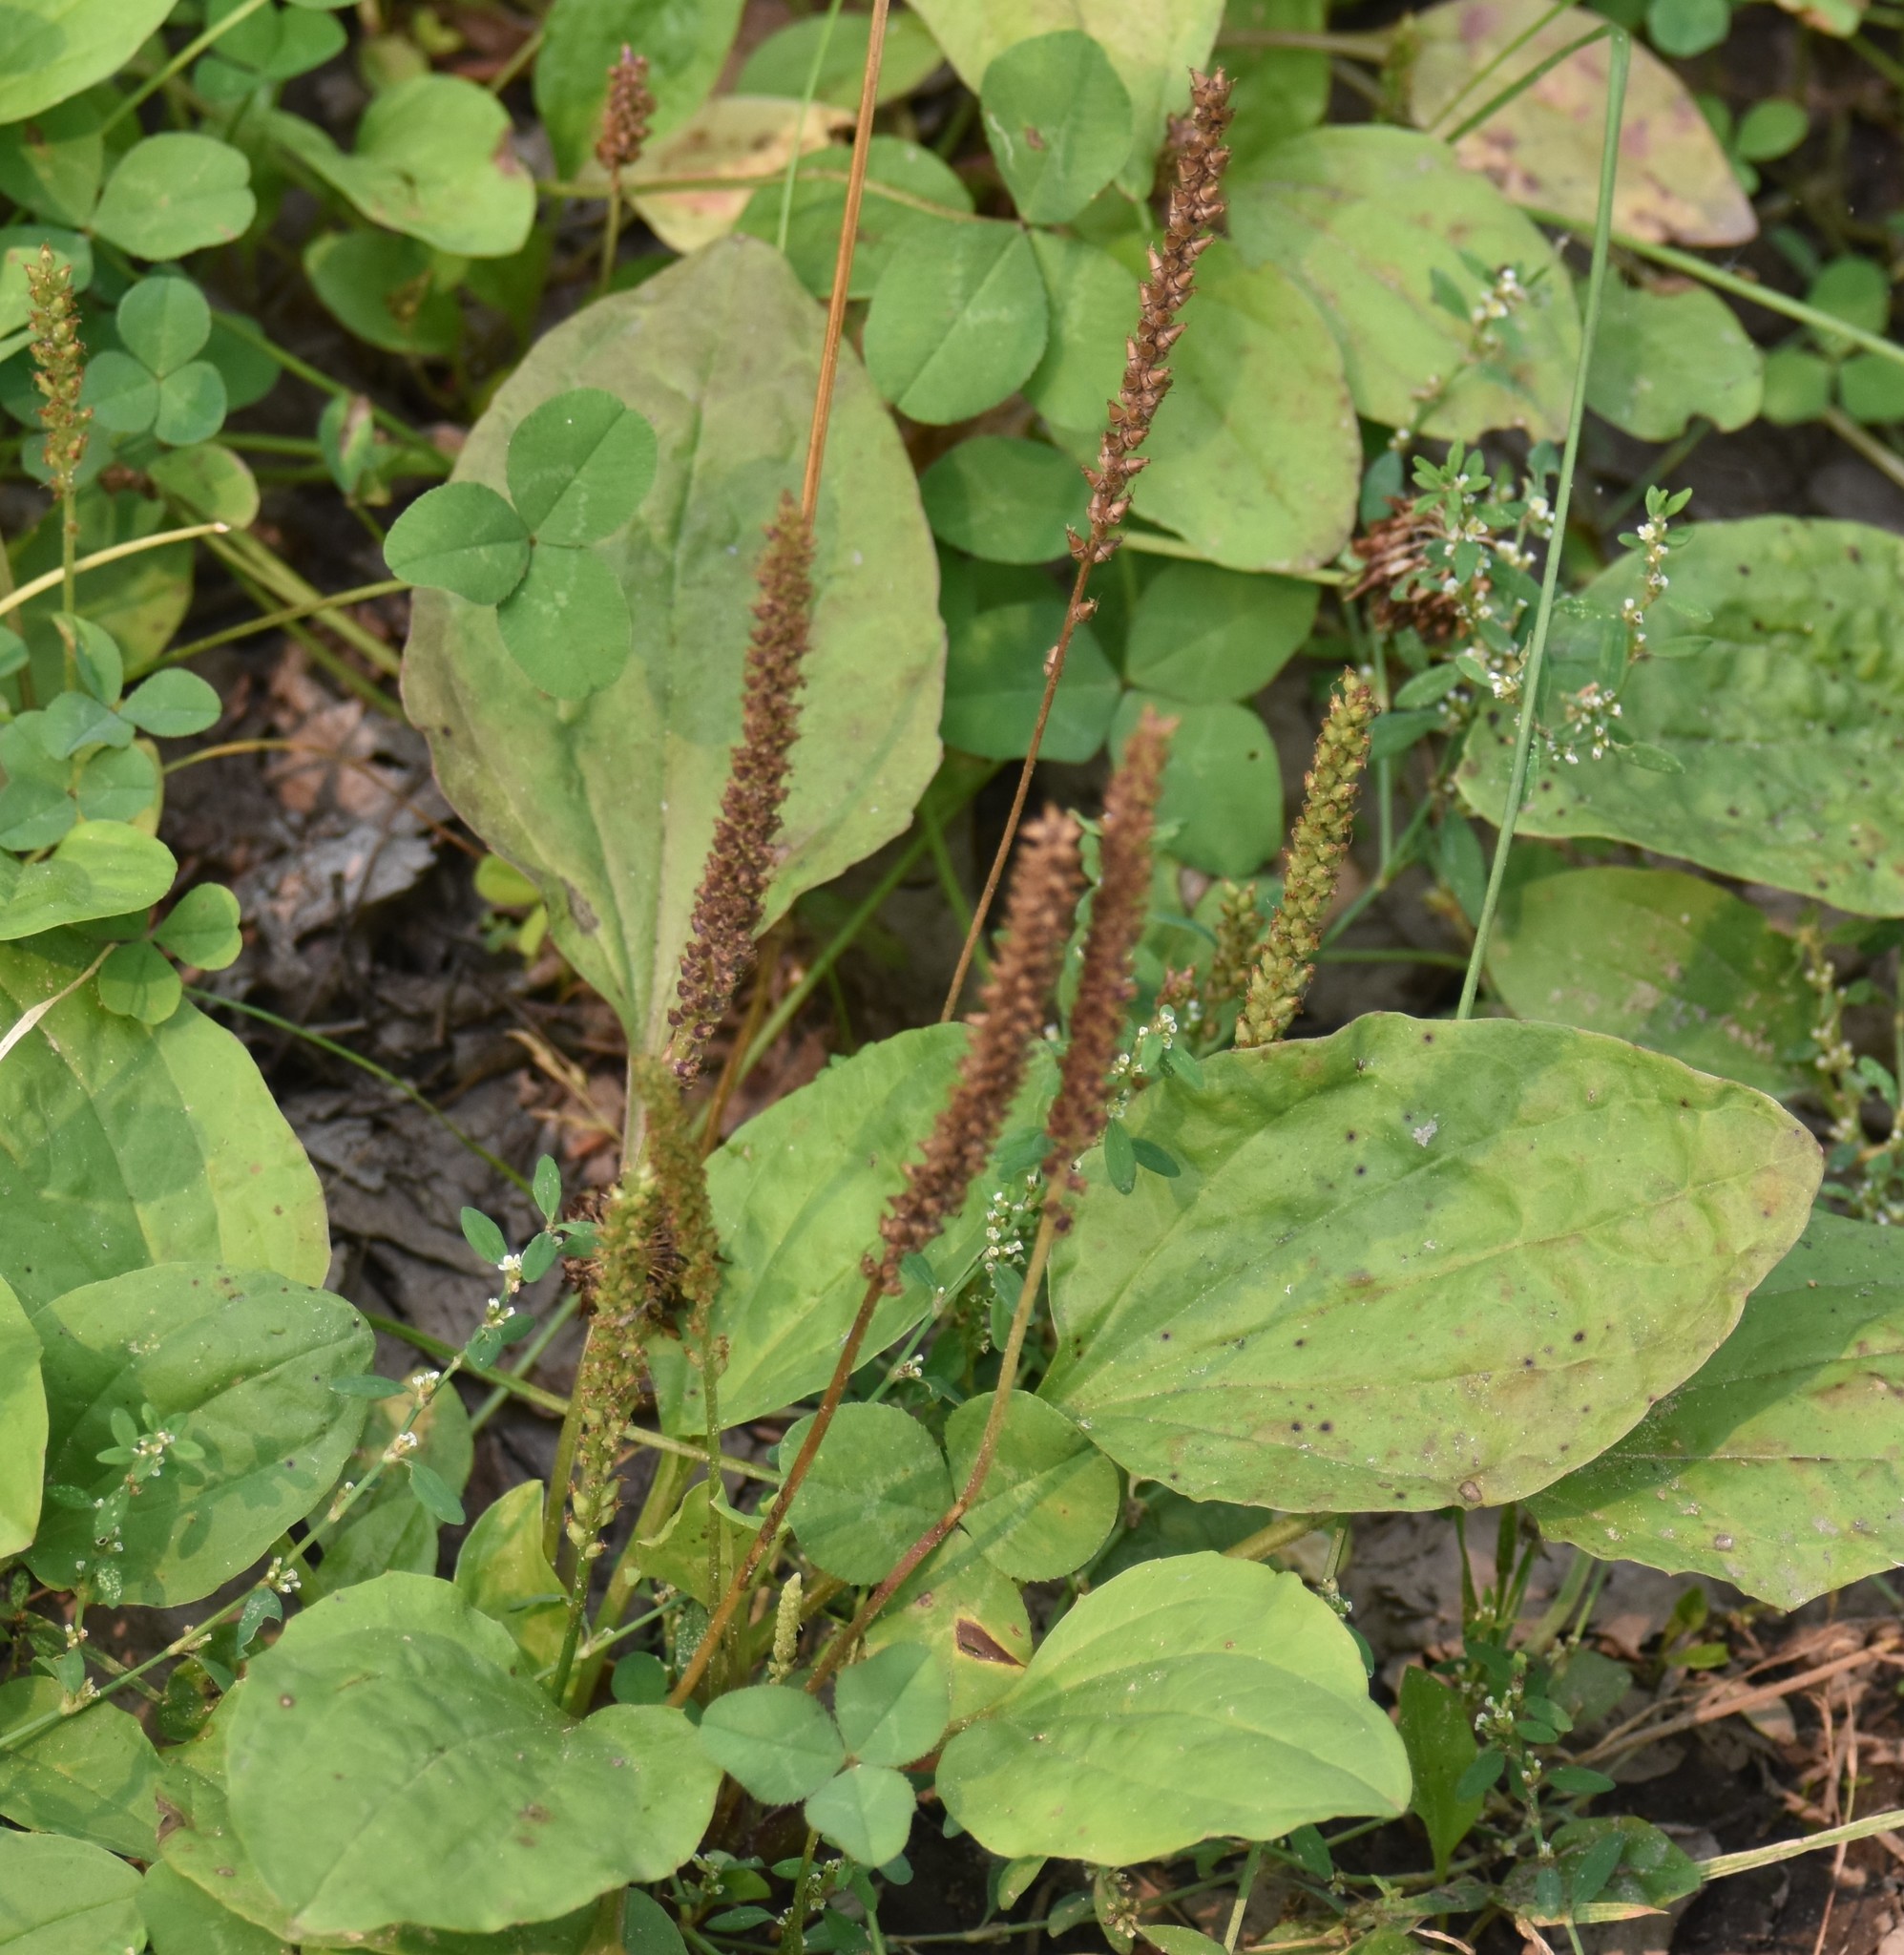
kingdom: Plantae
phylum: Tracheophyta
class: Magnoliopsida
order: Lamiales
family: Plantaginaceae
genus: Plantago
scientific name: Plantago major
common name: Common plantain
